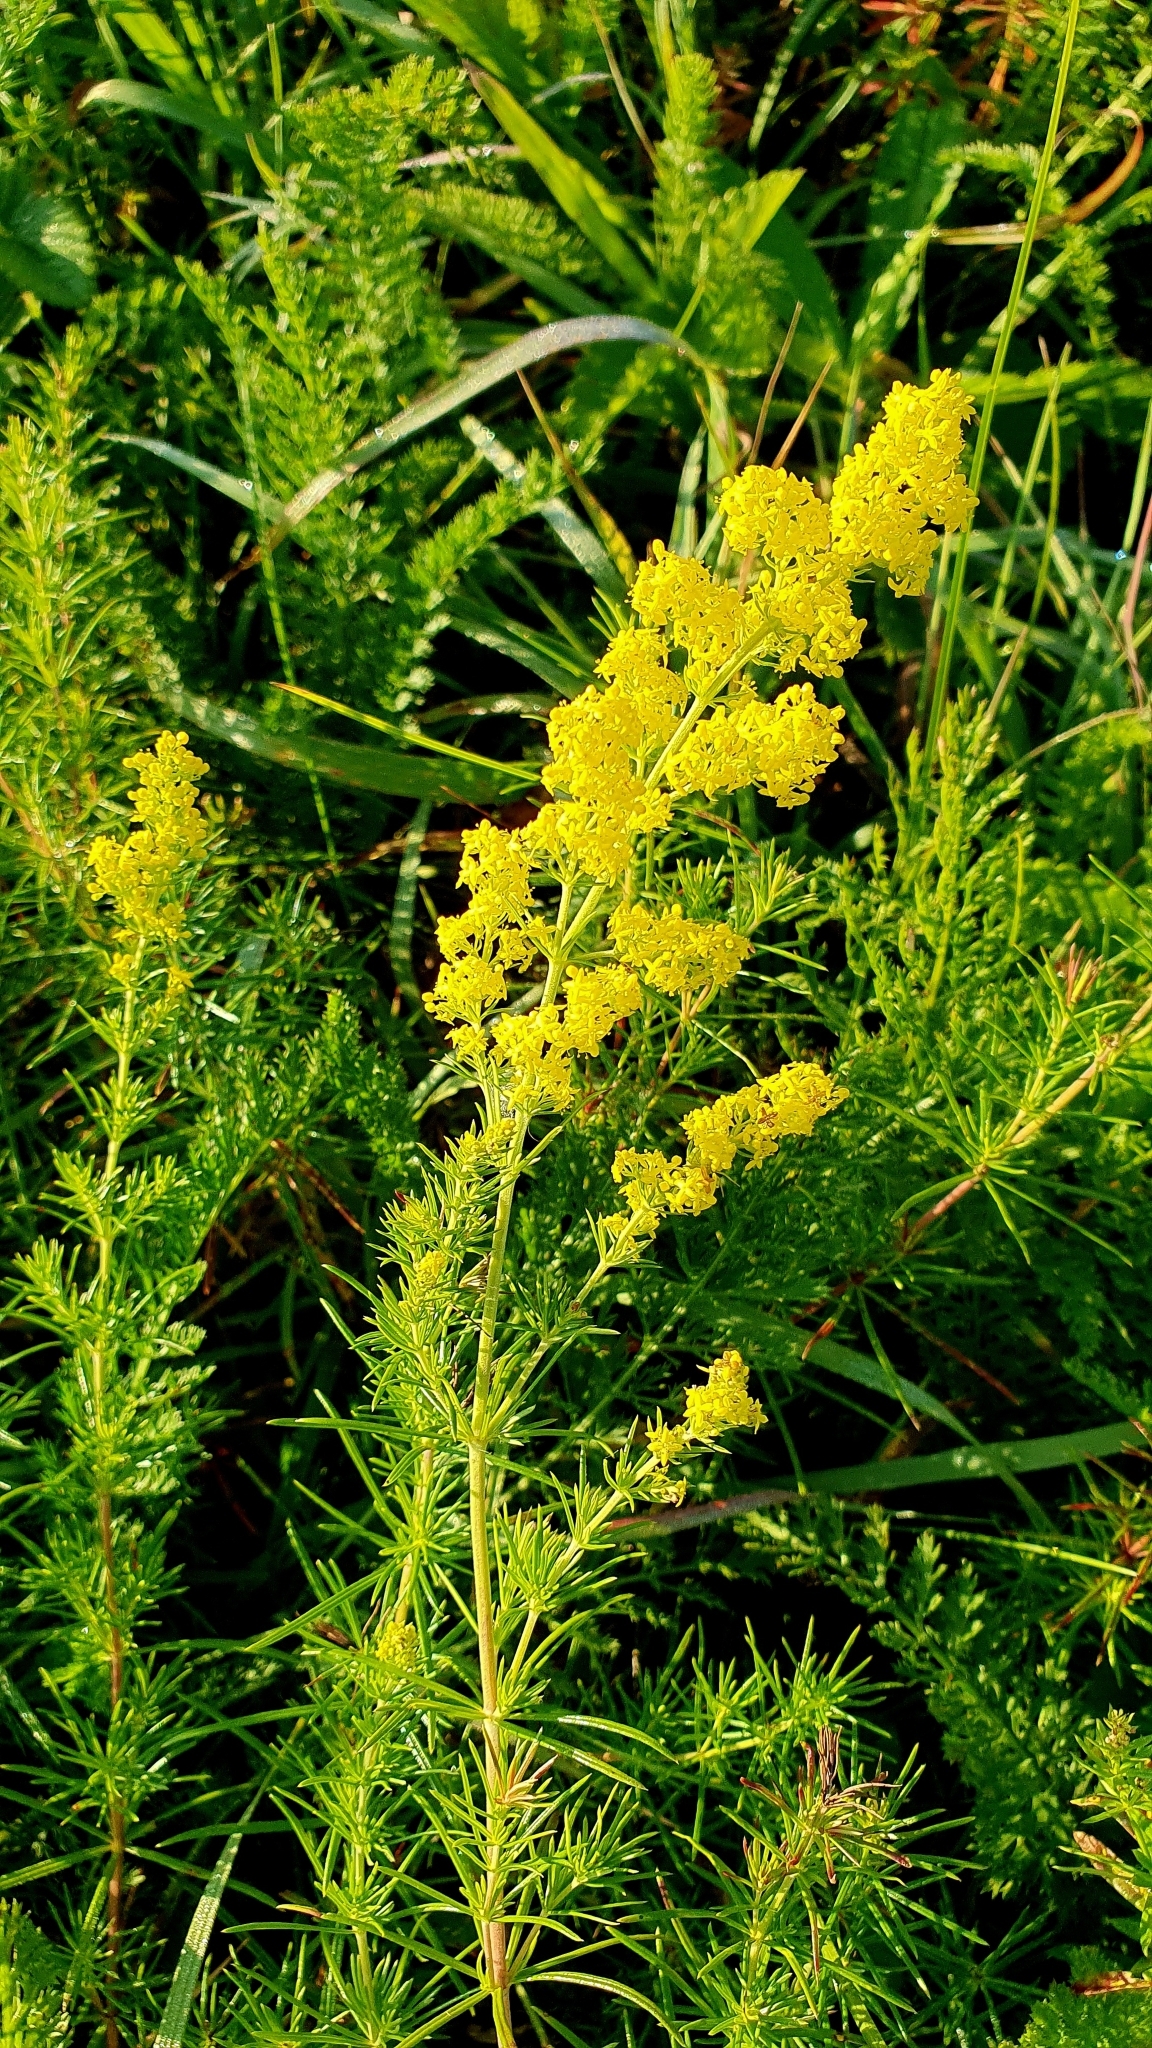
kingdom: Plantae
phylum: Tracheophyta
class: Magnoliopsida
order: Gentianales
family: Rubiaceae
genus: Galium
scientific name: Galium verum
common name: Lady's bedstraw
